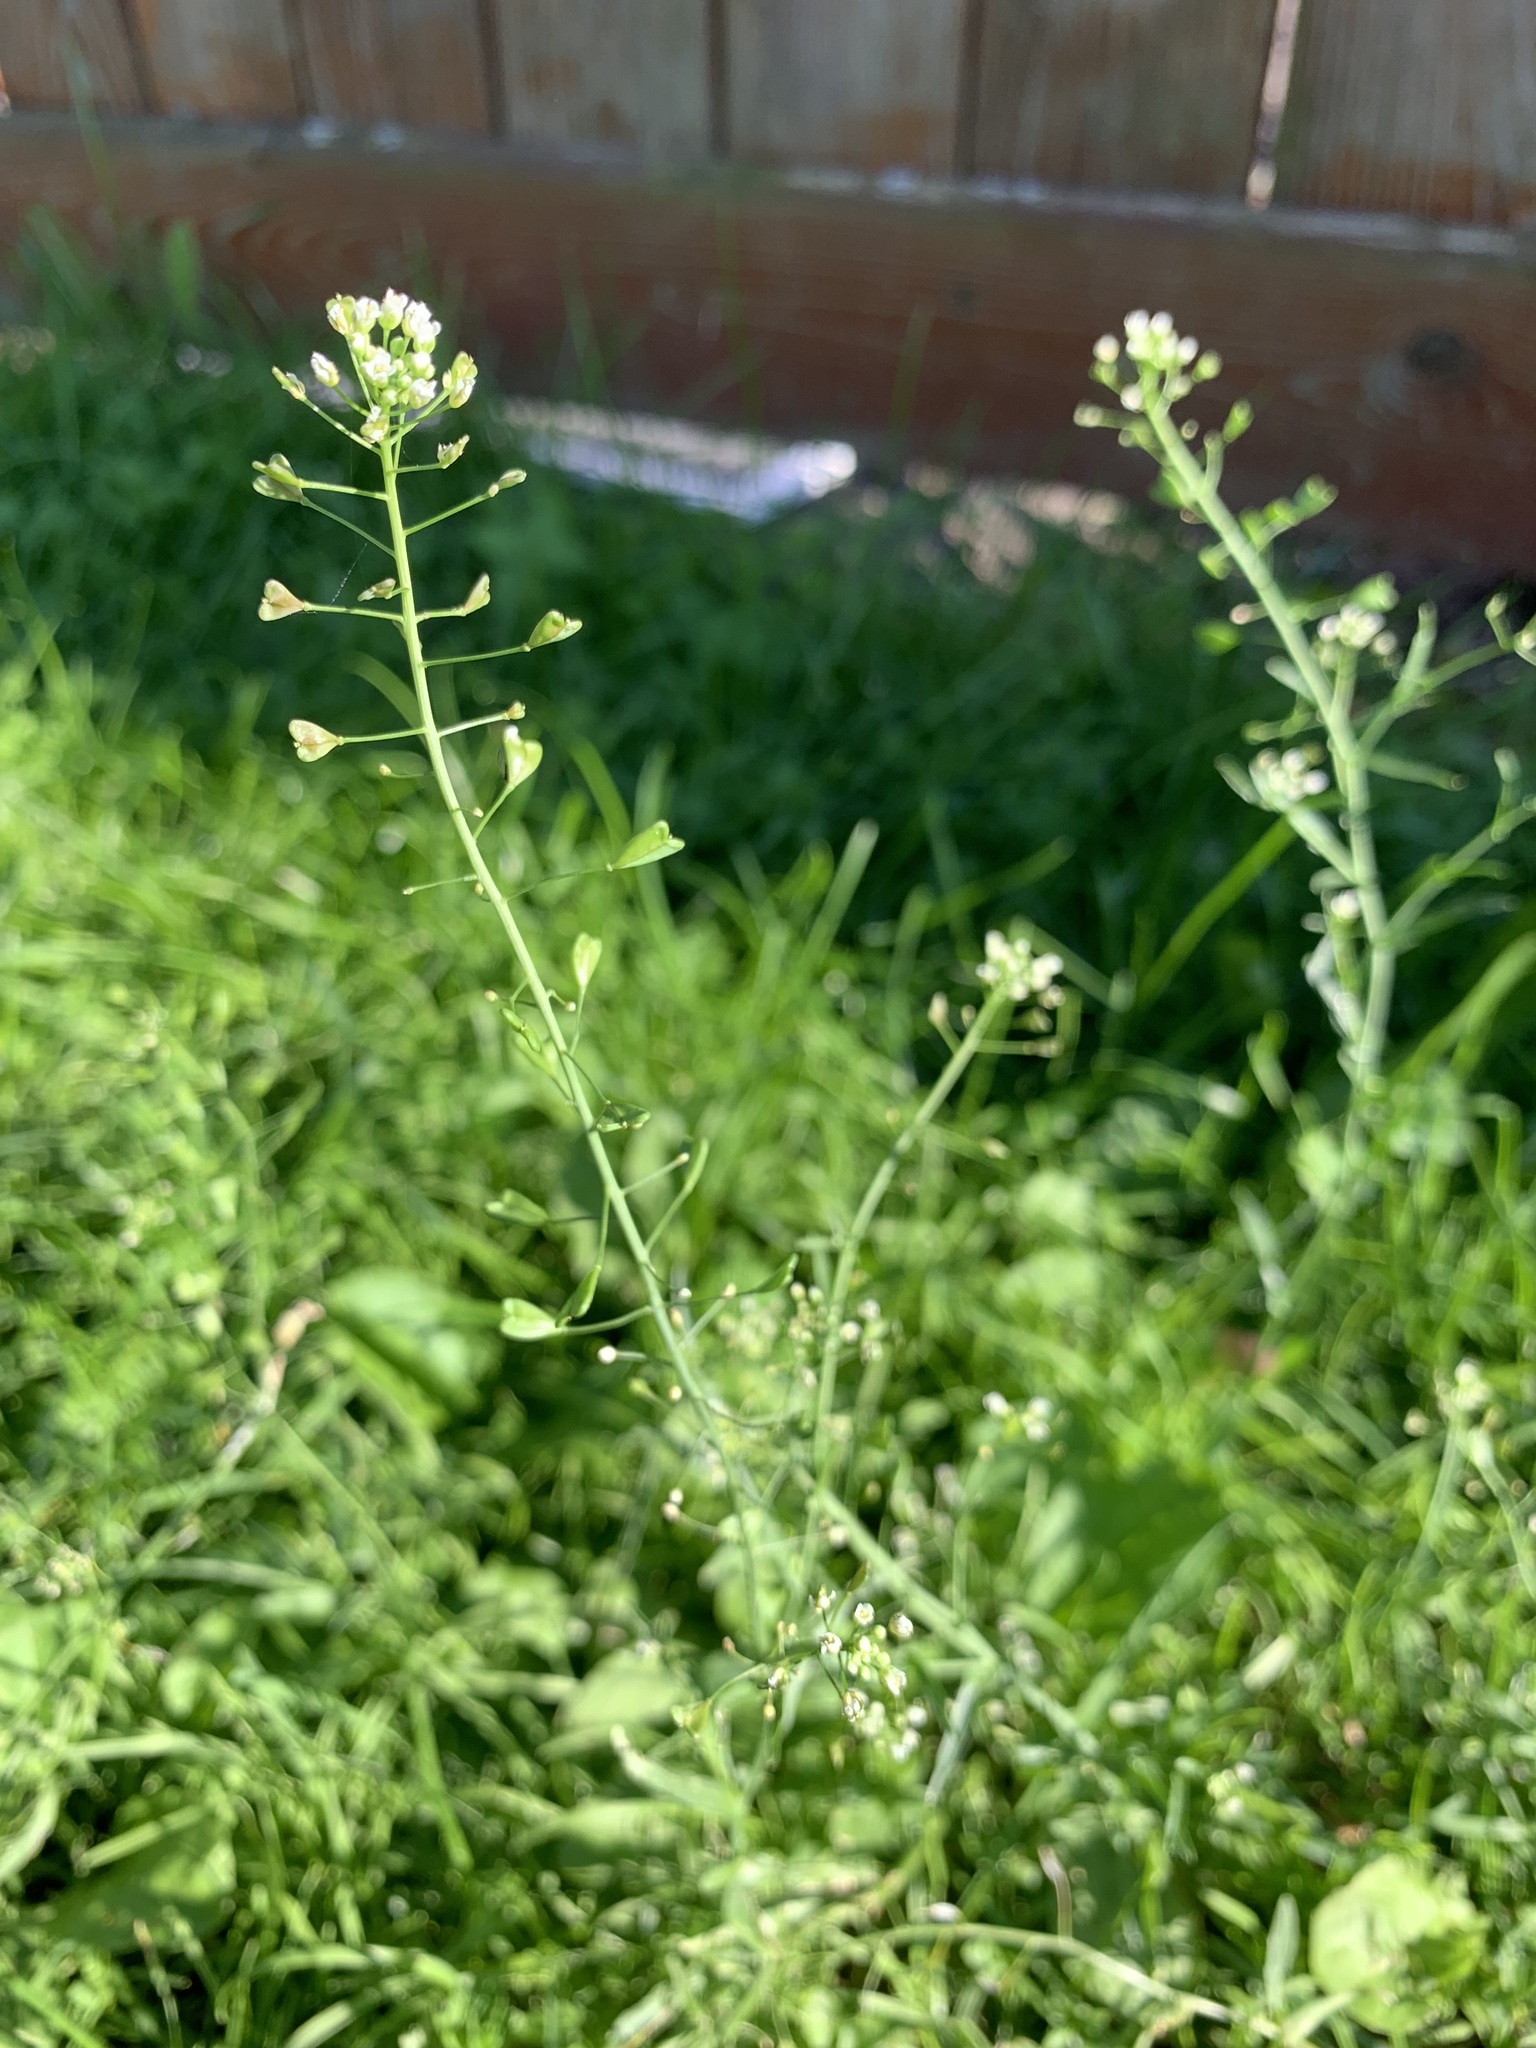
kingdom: Plantae
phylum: Tracheophyta
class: Magnoliopsida
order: Brassicales
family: Brassicaceae
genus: Capsella
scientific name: Capsella bursa-pastoris
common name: Shepherd's purse
